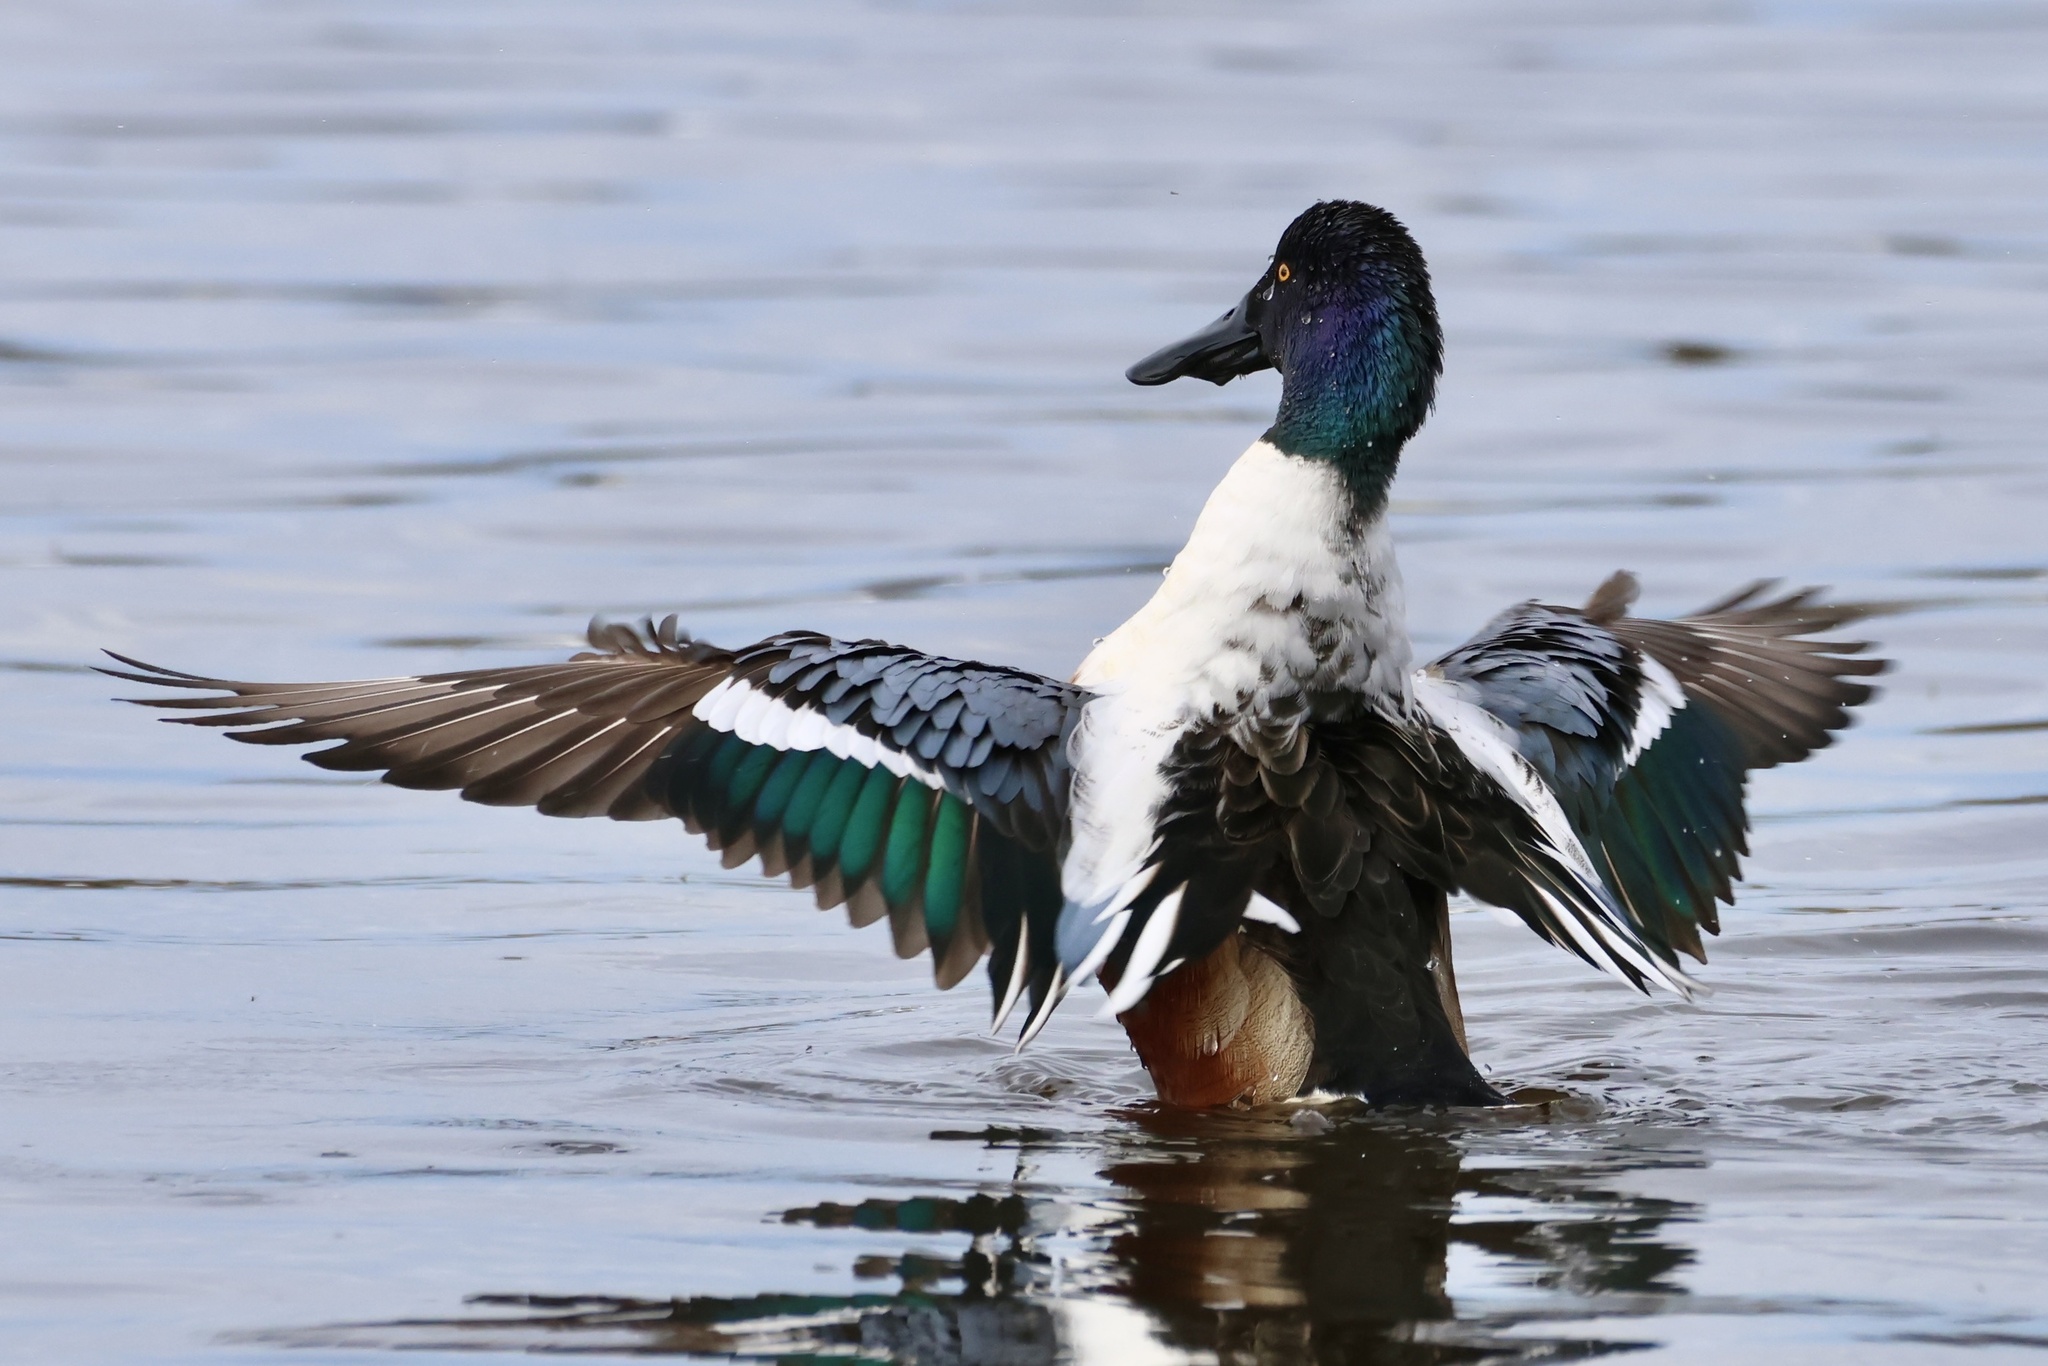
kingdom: Animalia
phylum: Chordata
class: Aves
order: Anseriformes
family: Anatidae
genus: Spatula
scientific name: Spatula clypeata
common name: Northern shoveler
